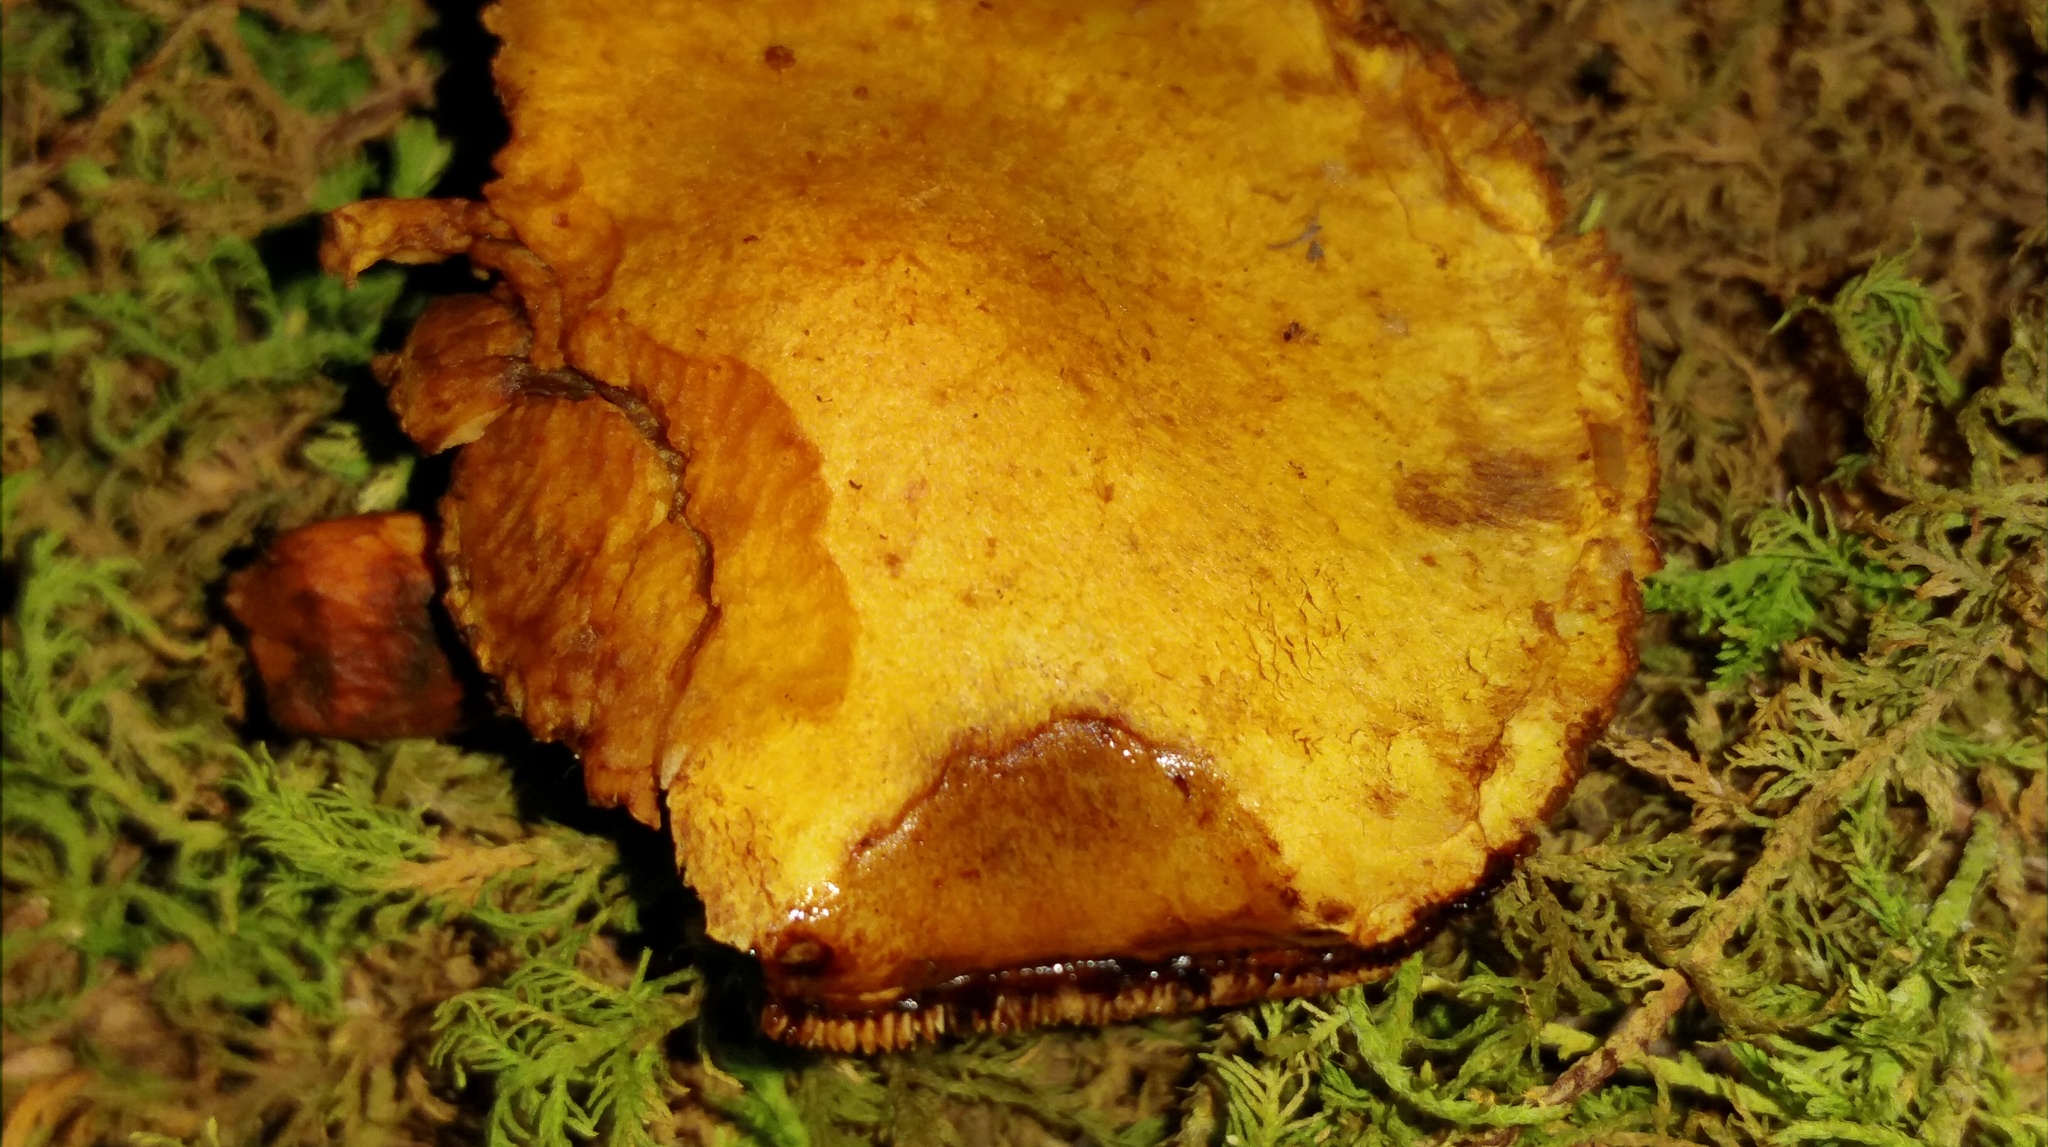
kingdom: Fungi
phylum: Basidiomycota
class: Agaricomycetes
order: Agaricales
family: Hymenogastraceae
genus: Gymnopilus
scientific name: Gymnopilus luteus
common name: Yellow gymnopilus
